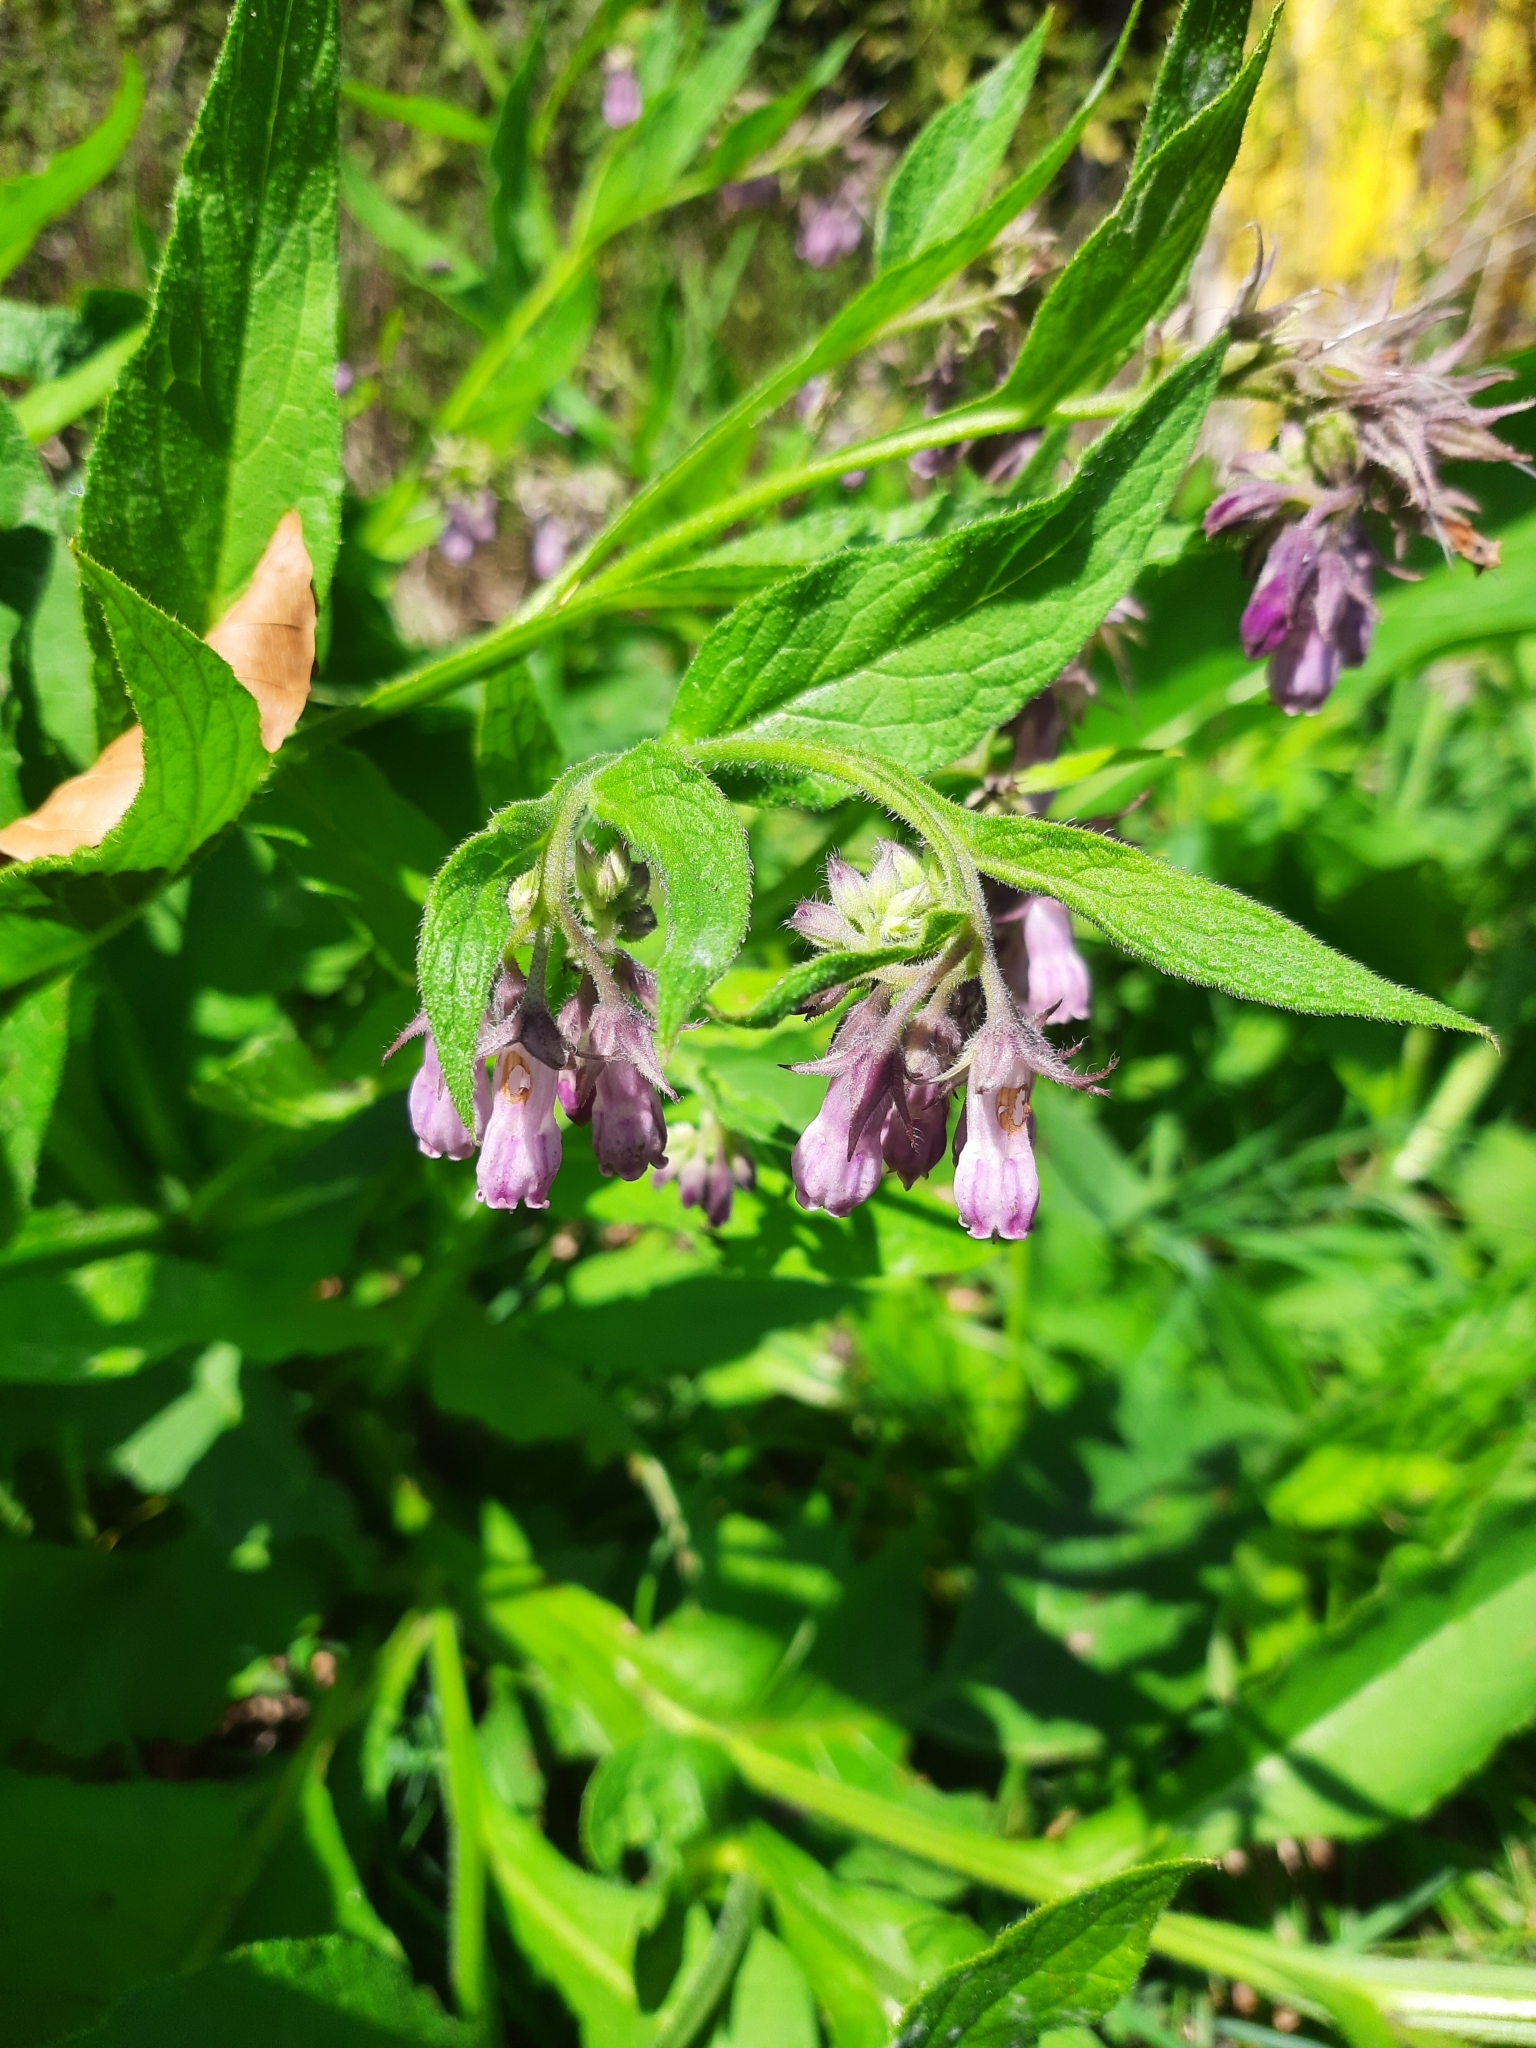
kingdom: Plantae
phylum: Tracheophyta
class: Magnoliopsida
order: Boraginales
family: Boraginaceae
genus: Symphytum
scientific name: Symphytum officinale
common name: Common comfrey
